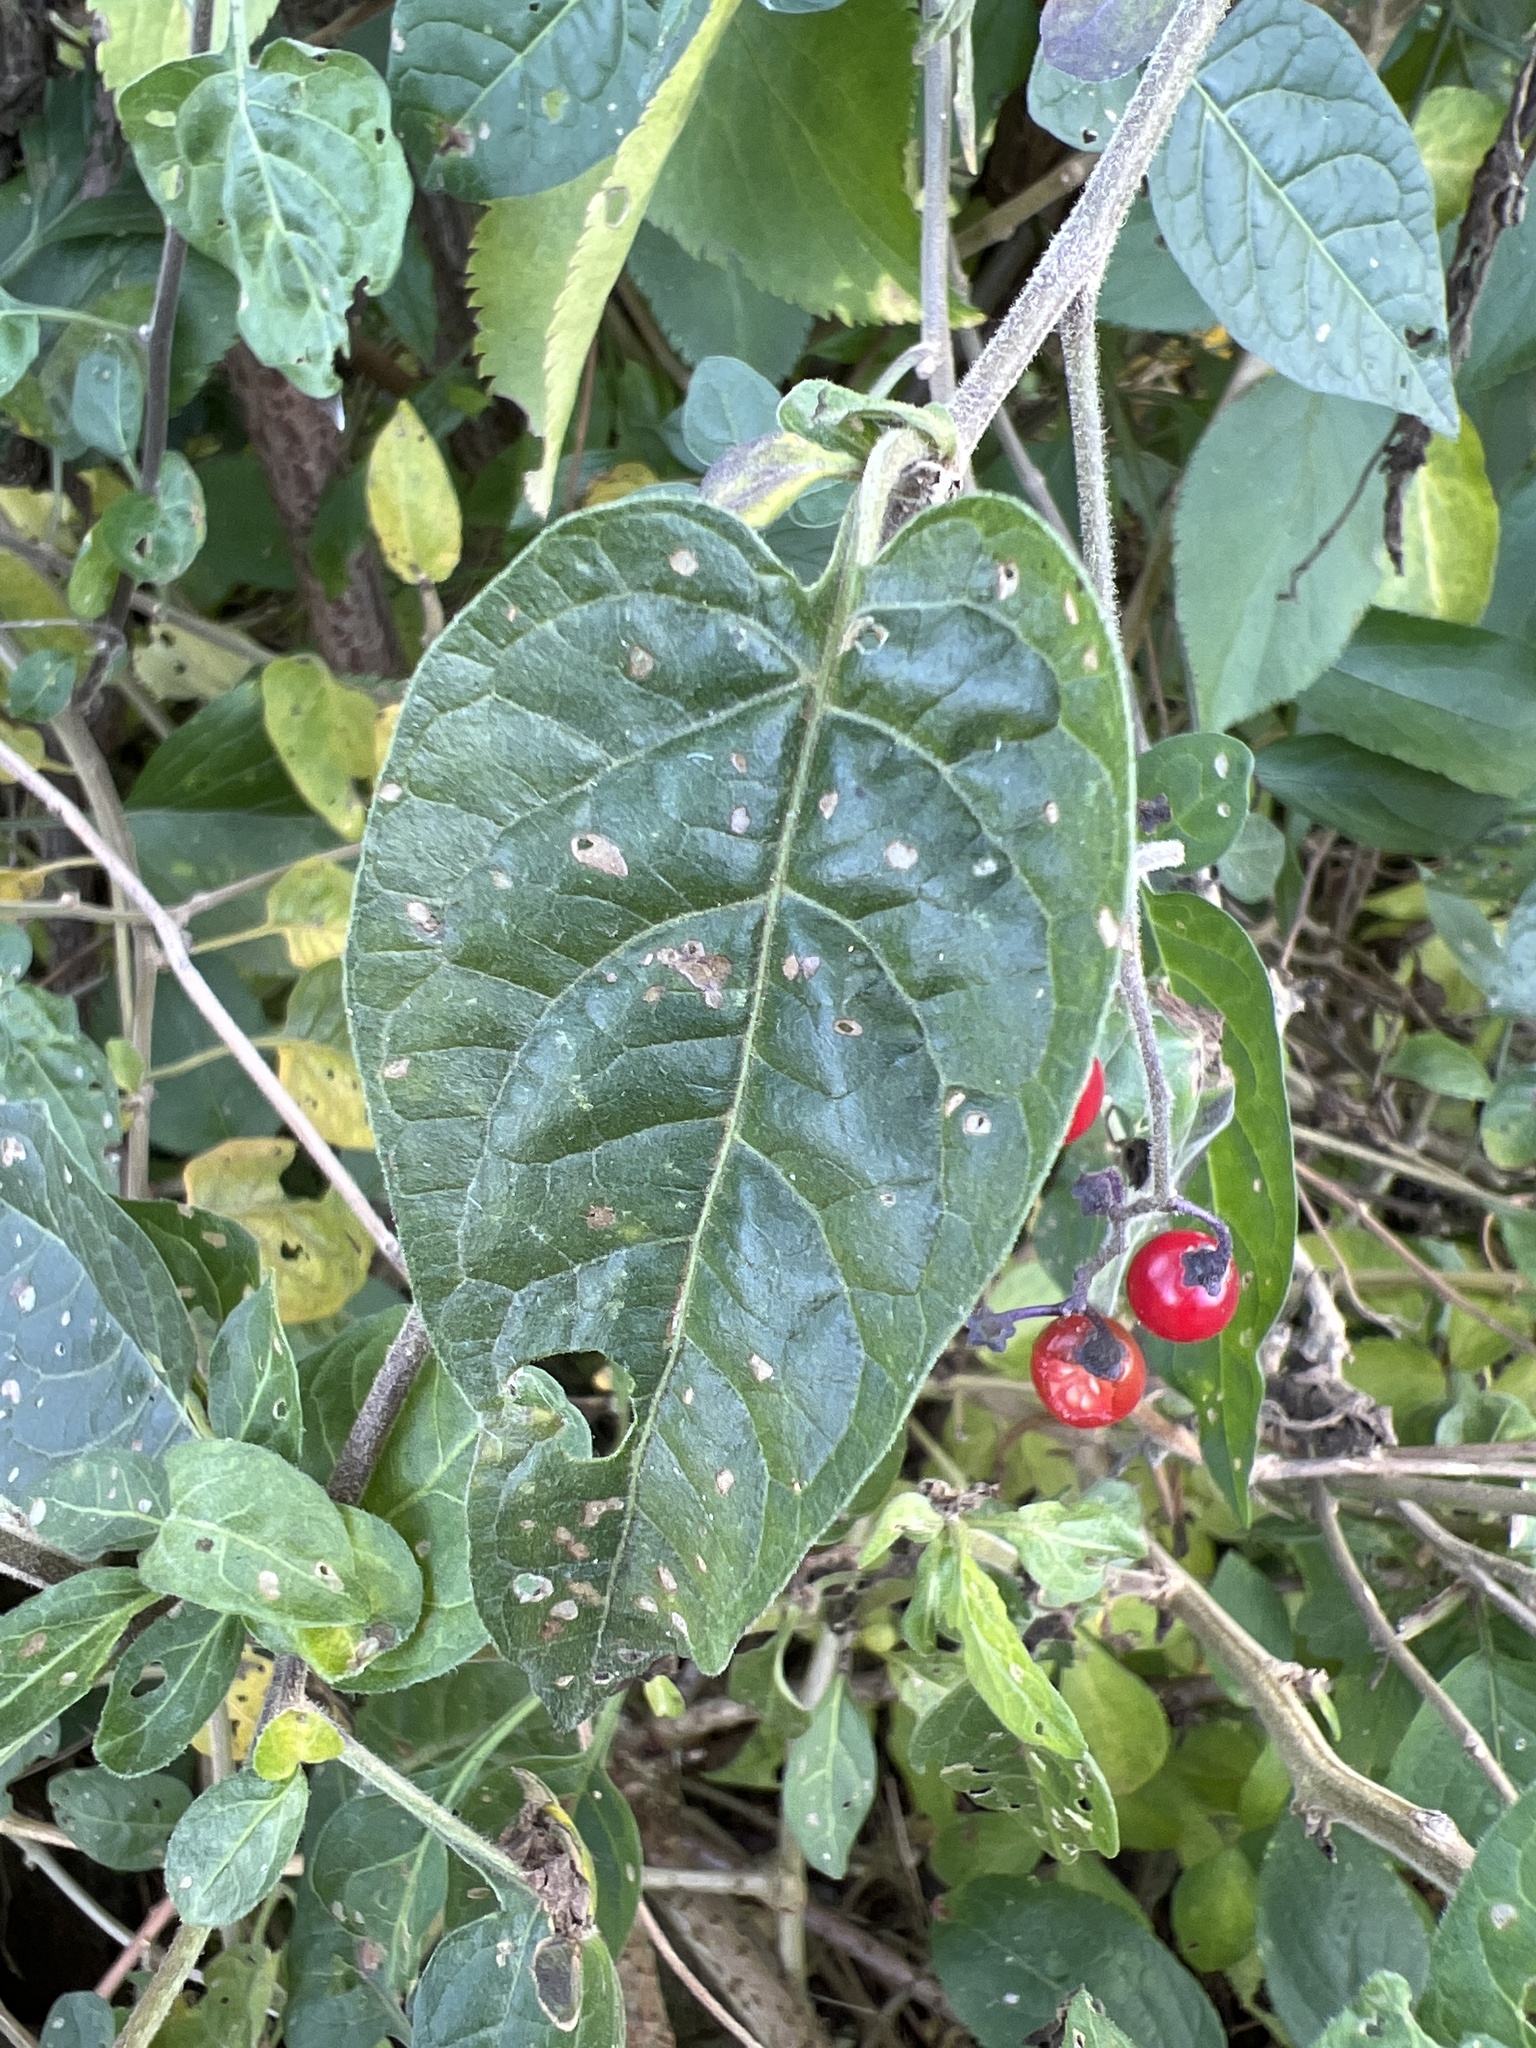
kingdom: Plantae
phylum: Tracheophyta
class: Magnoliopsida
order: Solanales
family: Solanaceae
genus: Solanum
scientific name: Solanum dulcamara
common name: Climbing nightshade
